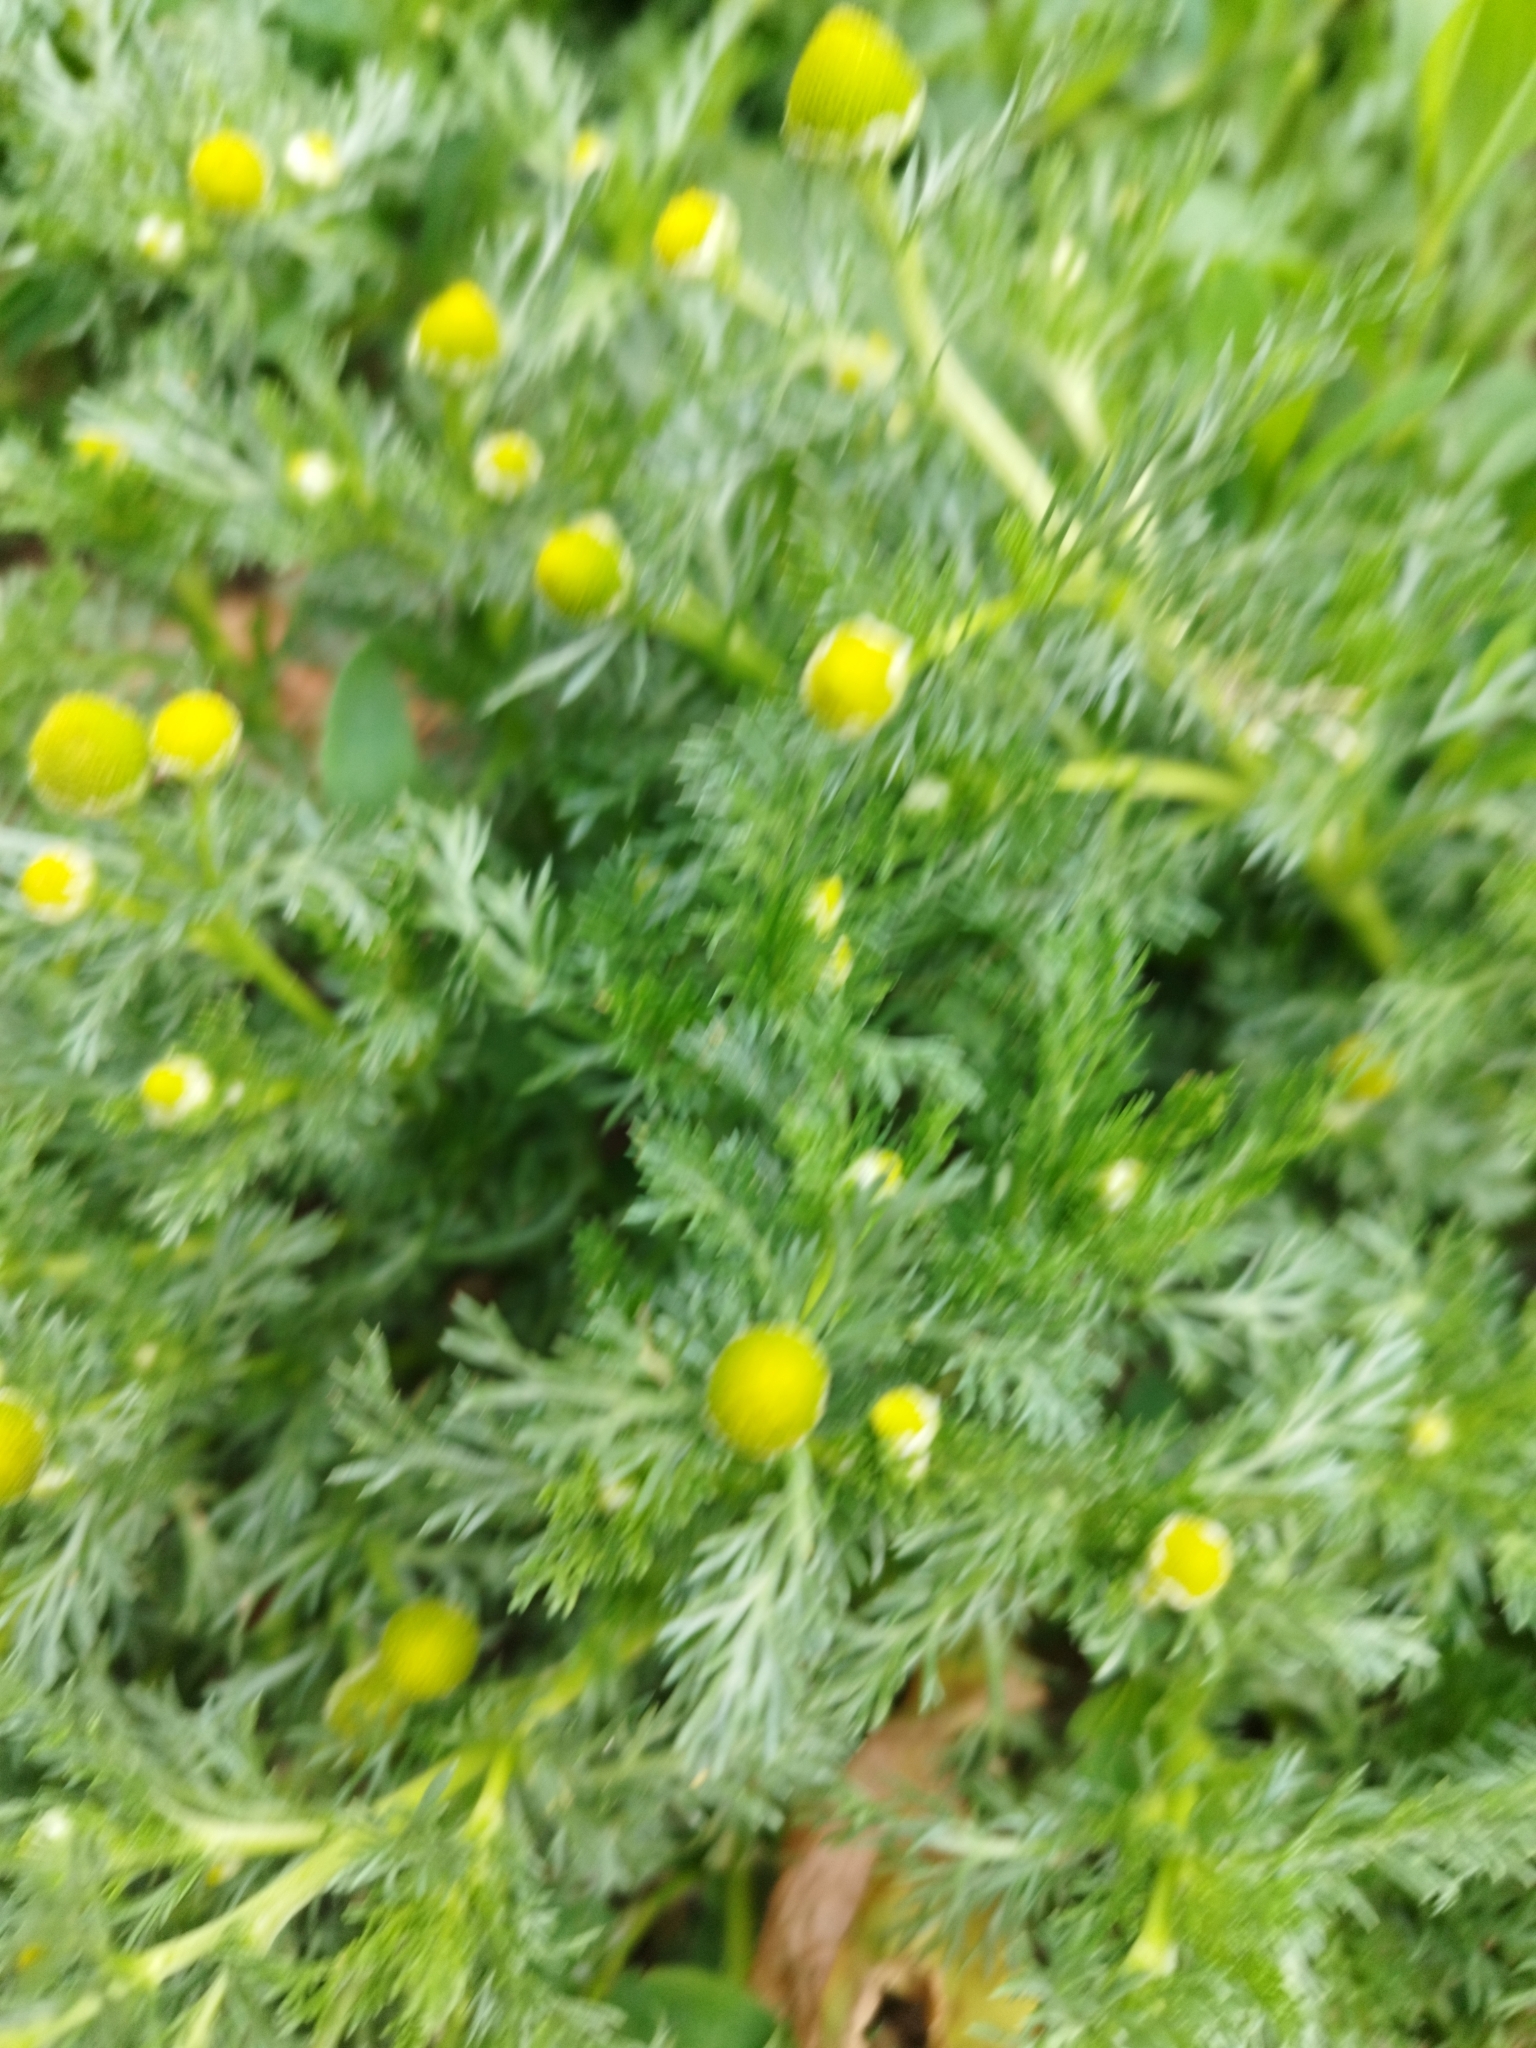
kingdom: Plantae
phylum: Tracheophyta
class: Magnoliopsida
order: Asterales
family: Asteraceae
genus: Matricaria
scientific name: Matricaria discoidea
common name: Disc mayweed
